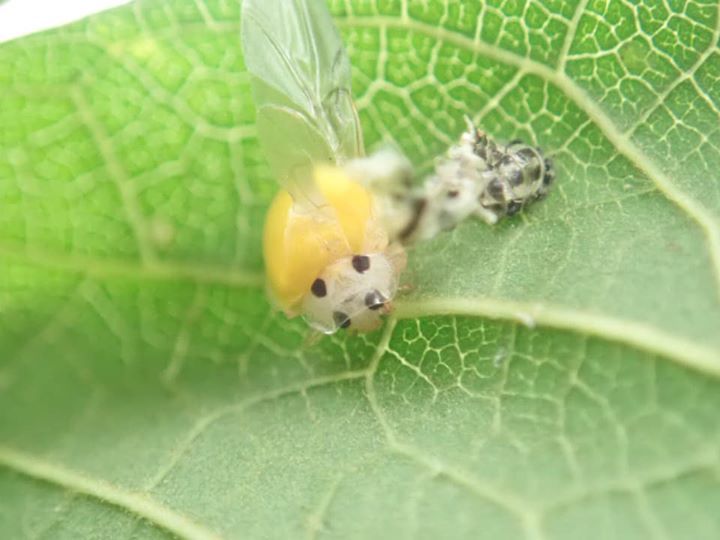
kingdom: Animalia
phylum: Arthropoda
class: Insecta
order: Coleoptera
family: Coccinellidae
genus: Illeis
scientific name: Illeis koebelei
